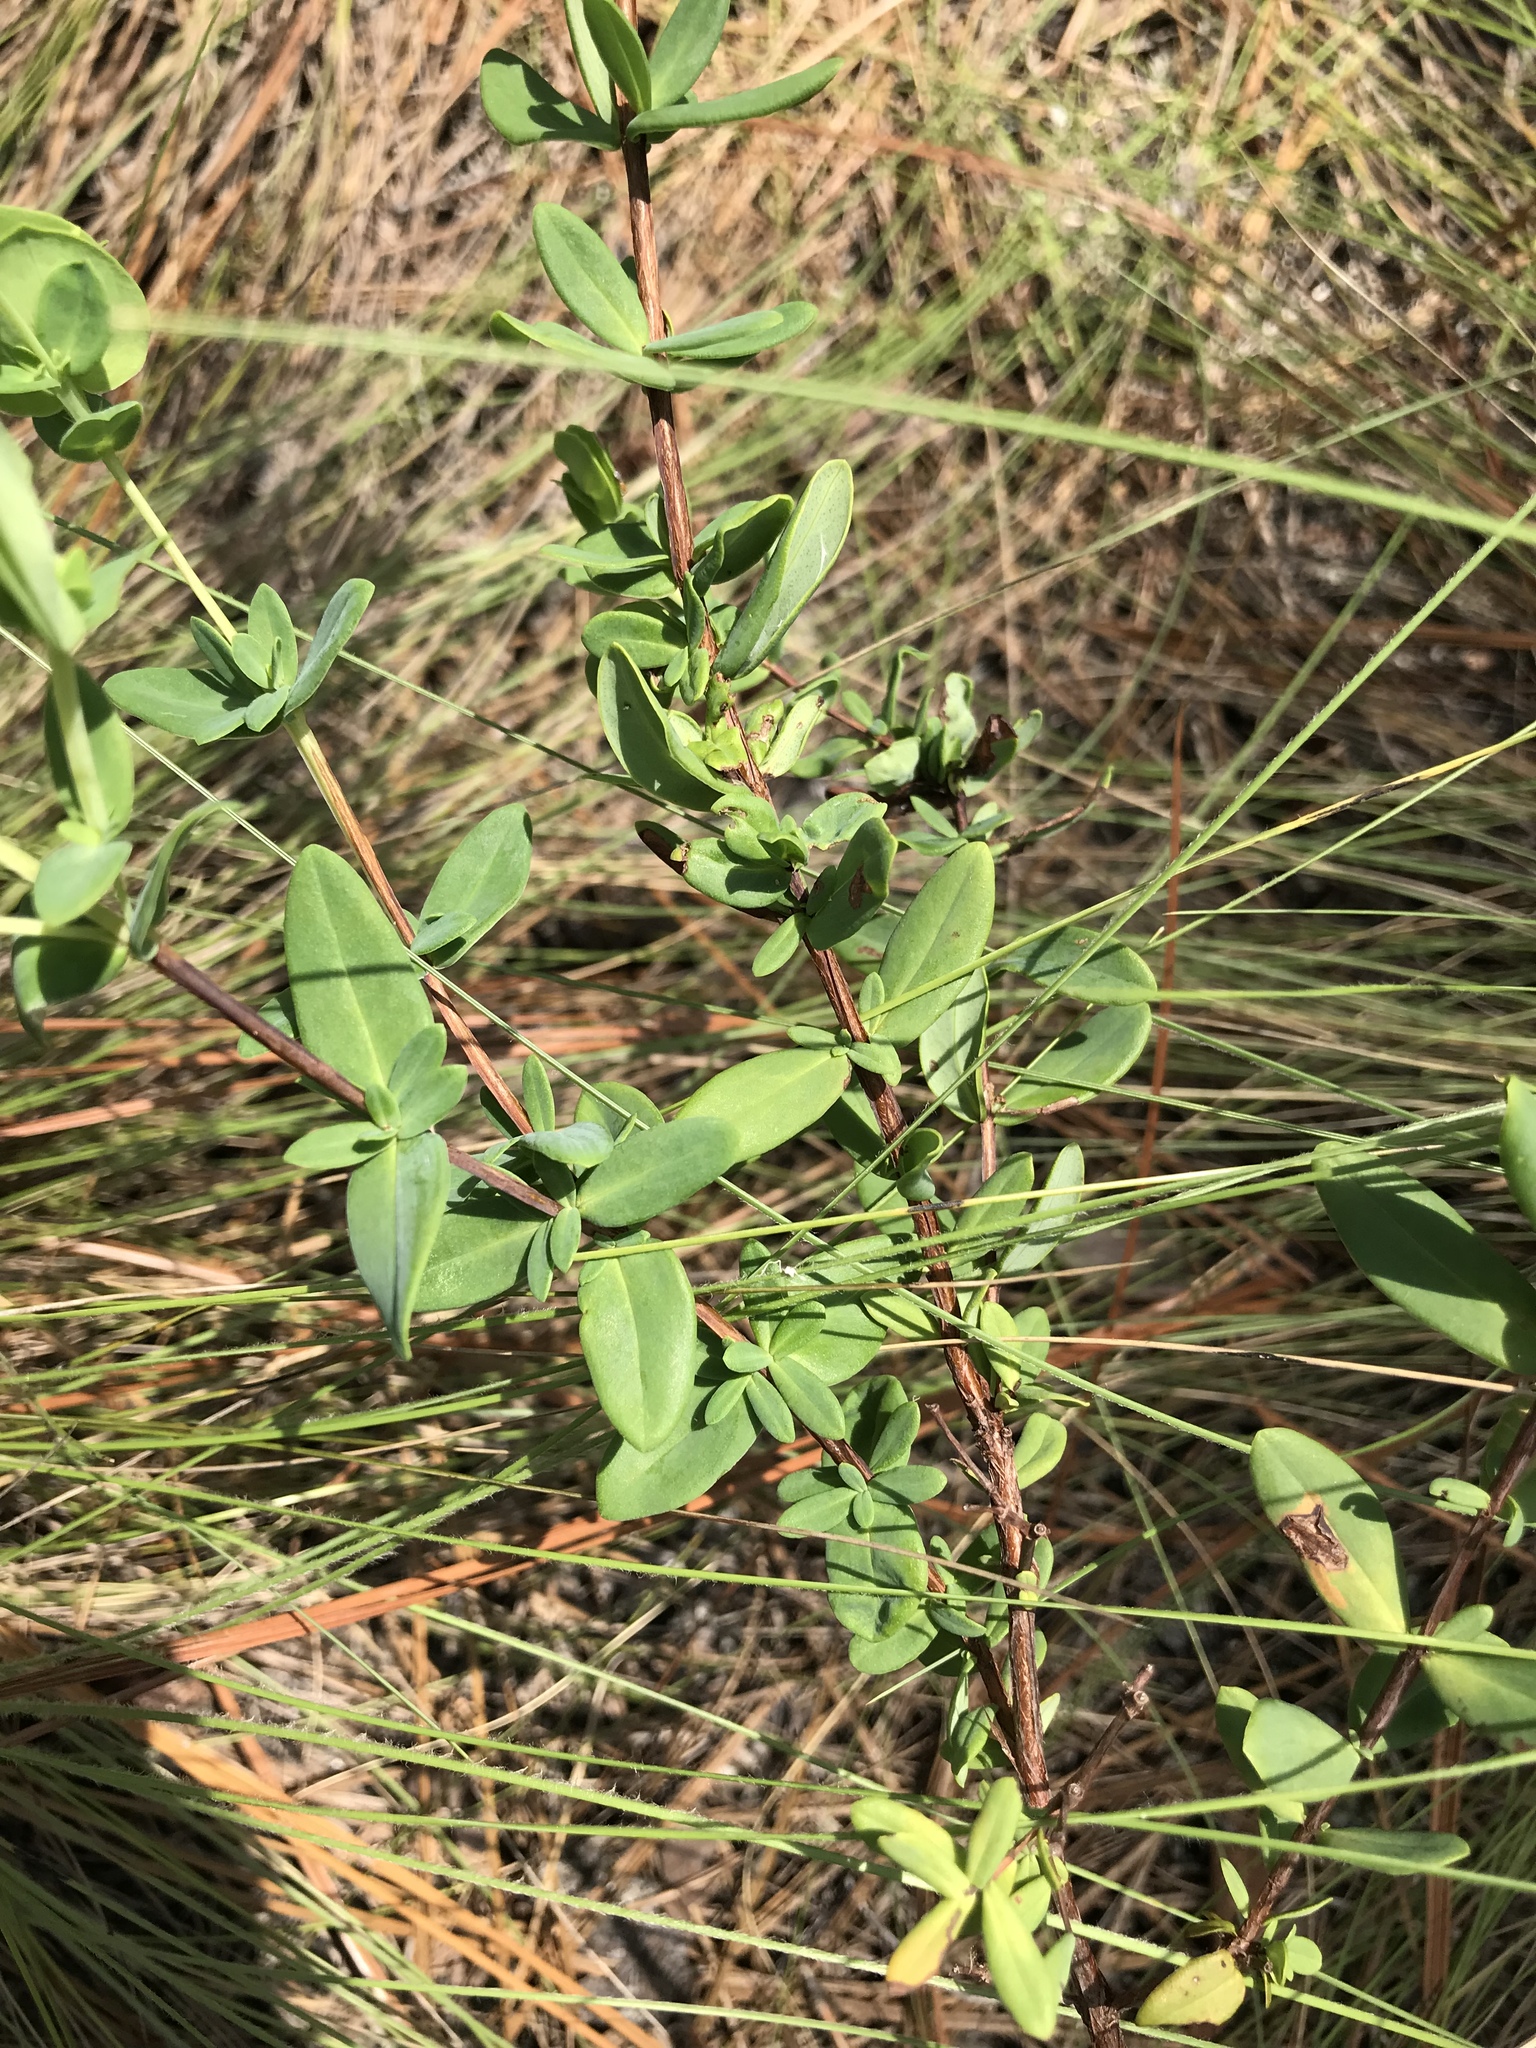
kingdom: Plantae
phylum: Tracheophyta
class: Magnoliopsida
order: Malpighiales
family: Hypericaceae
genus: Hypericum
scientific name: Hypericum crux-andreae
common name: St.-peter's-wort
